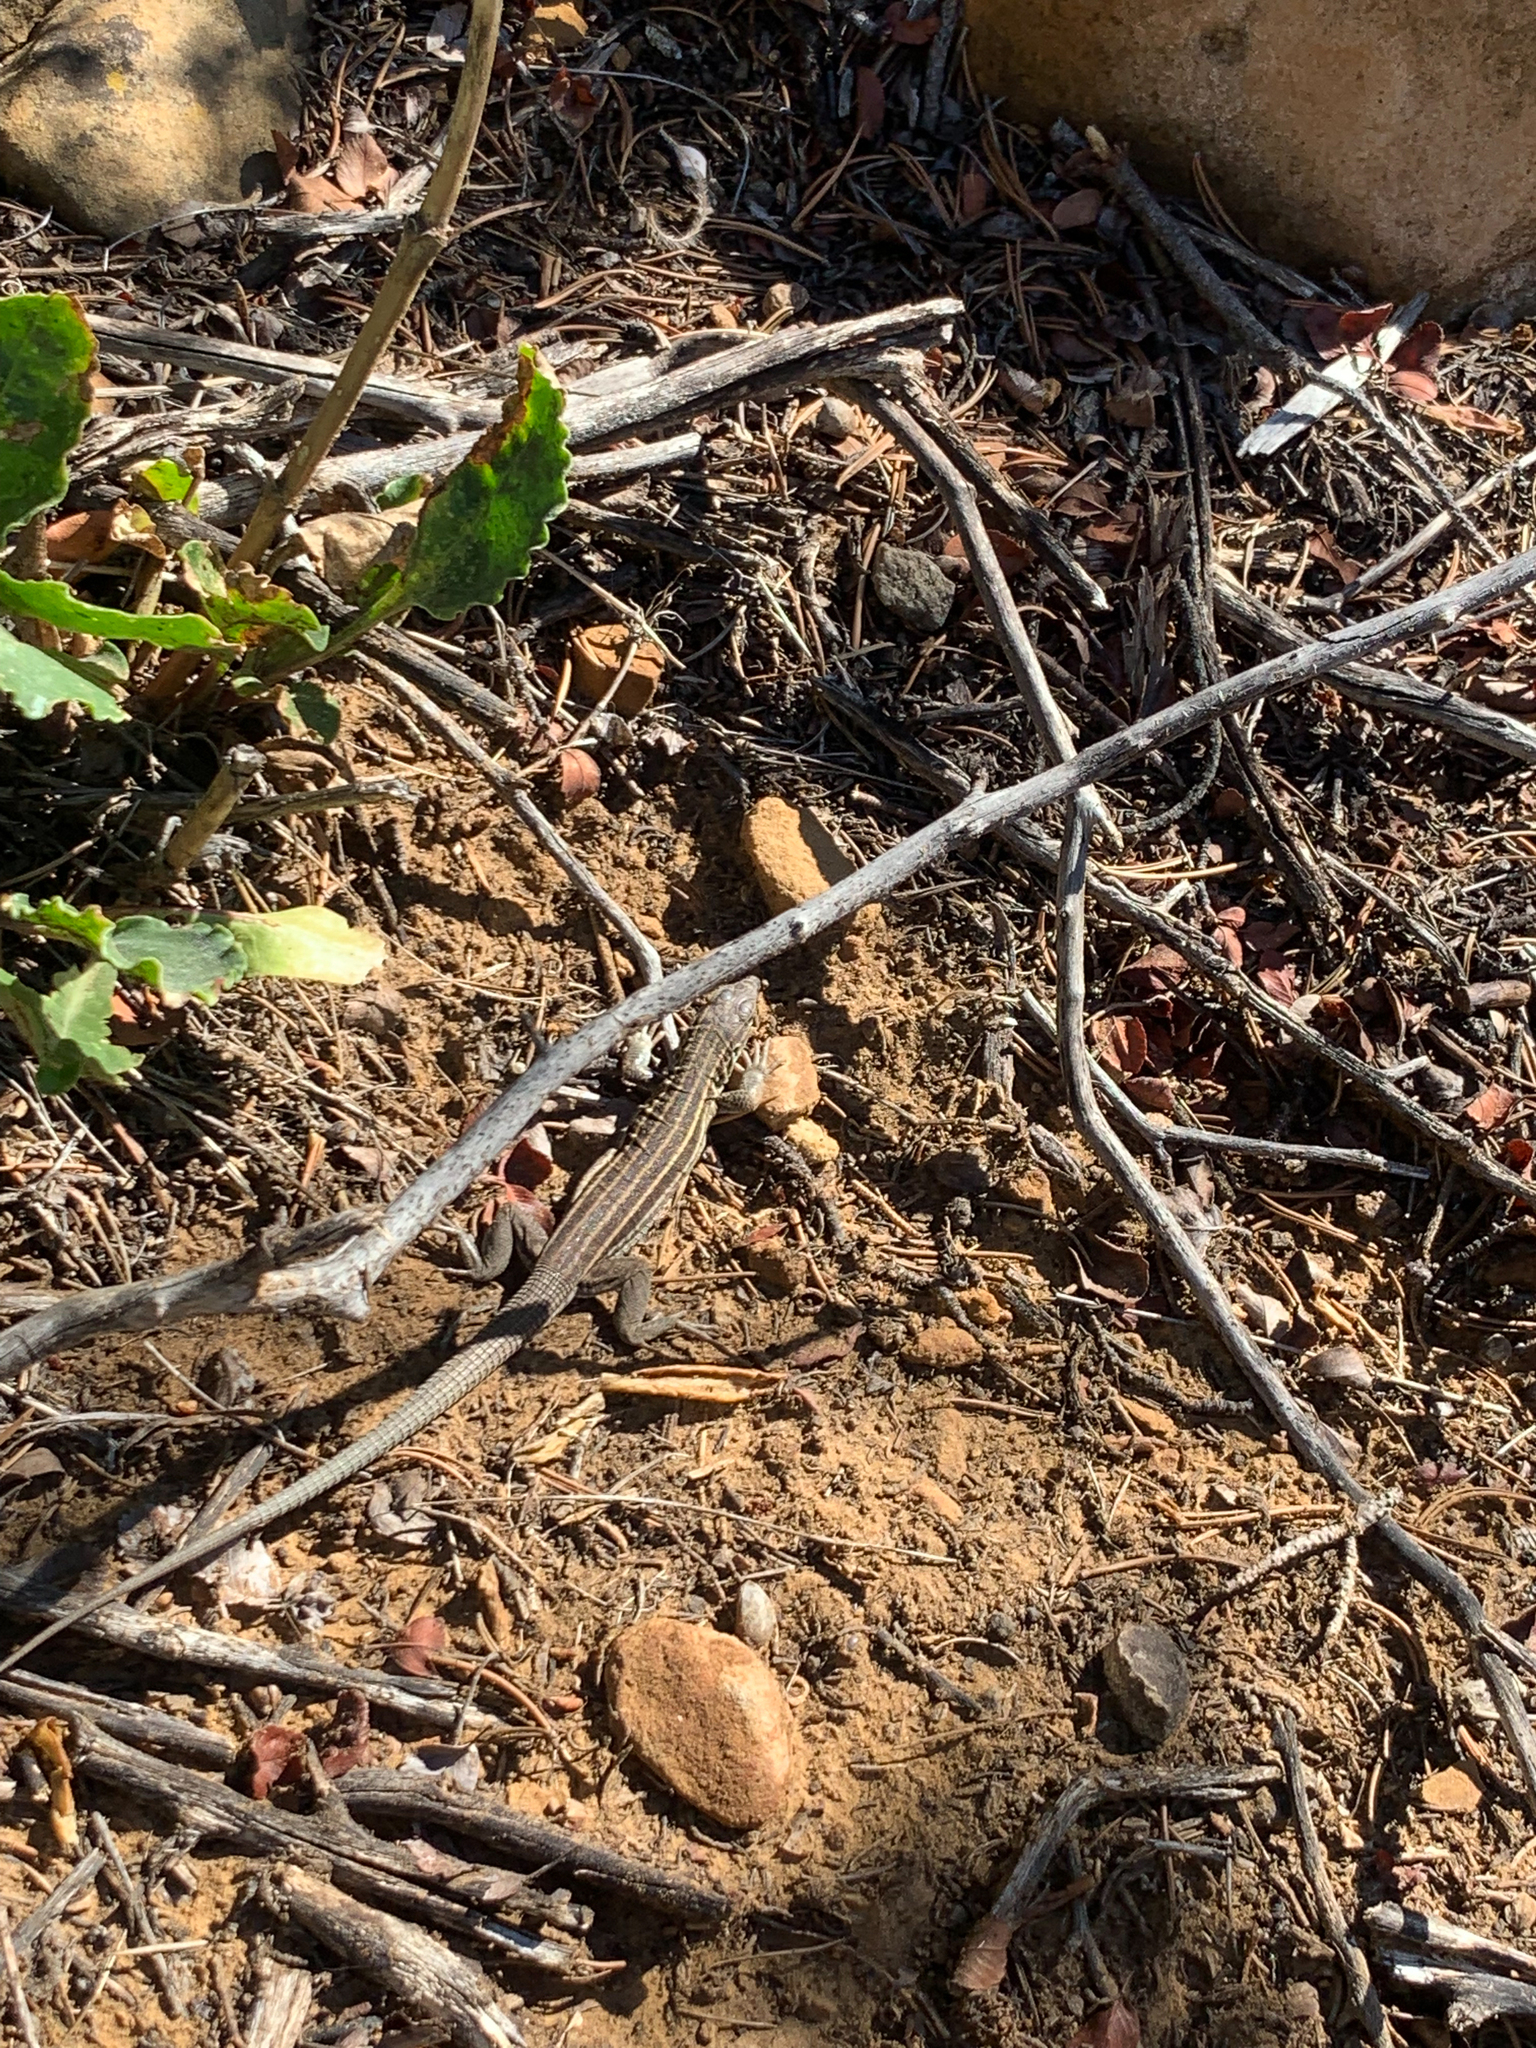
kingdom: Animalia
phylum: Chordata
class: Squamata
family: Teiidae
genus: Aspidoscelis
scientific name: Aspidoscelis velox
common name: Plateau striped whiptail
